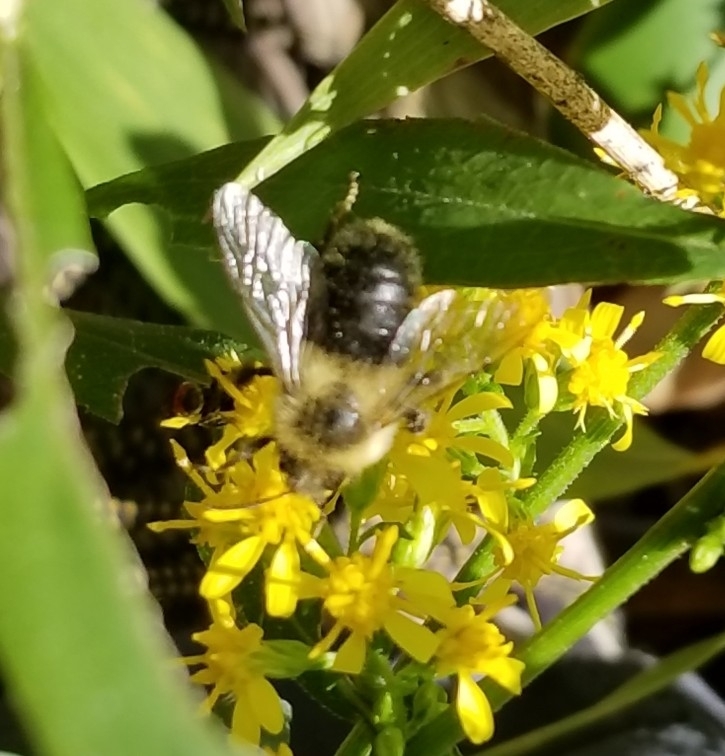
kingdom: Animalia
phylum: Arthropoda
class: Insecta
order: Hymenoptera
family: Apidae
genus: Bombus
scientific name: Bombus impatiens
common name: Common eastern bumble bee
